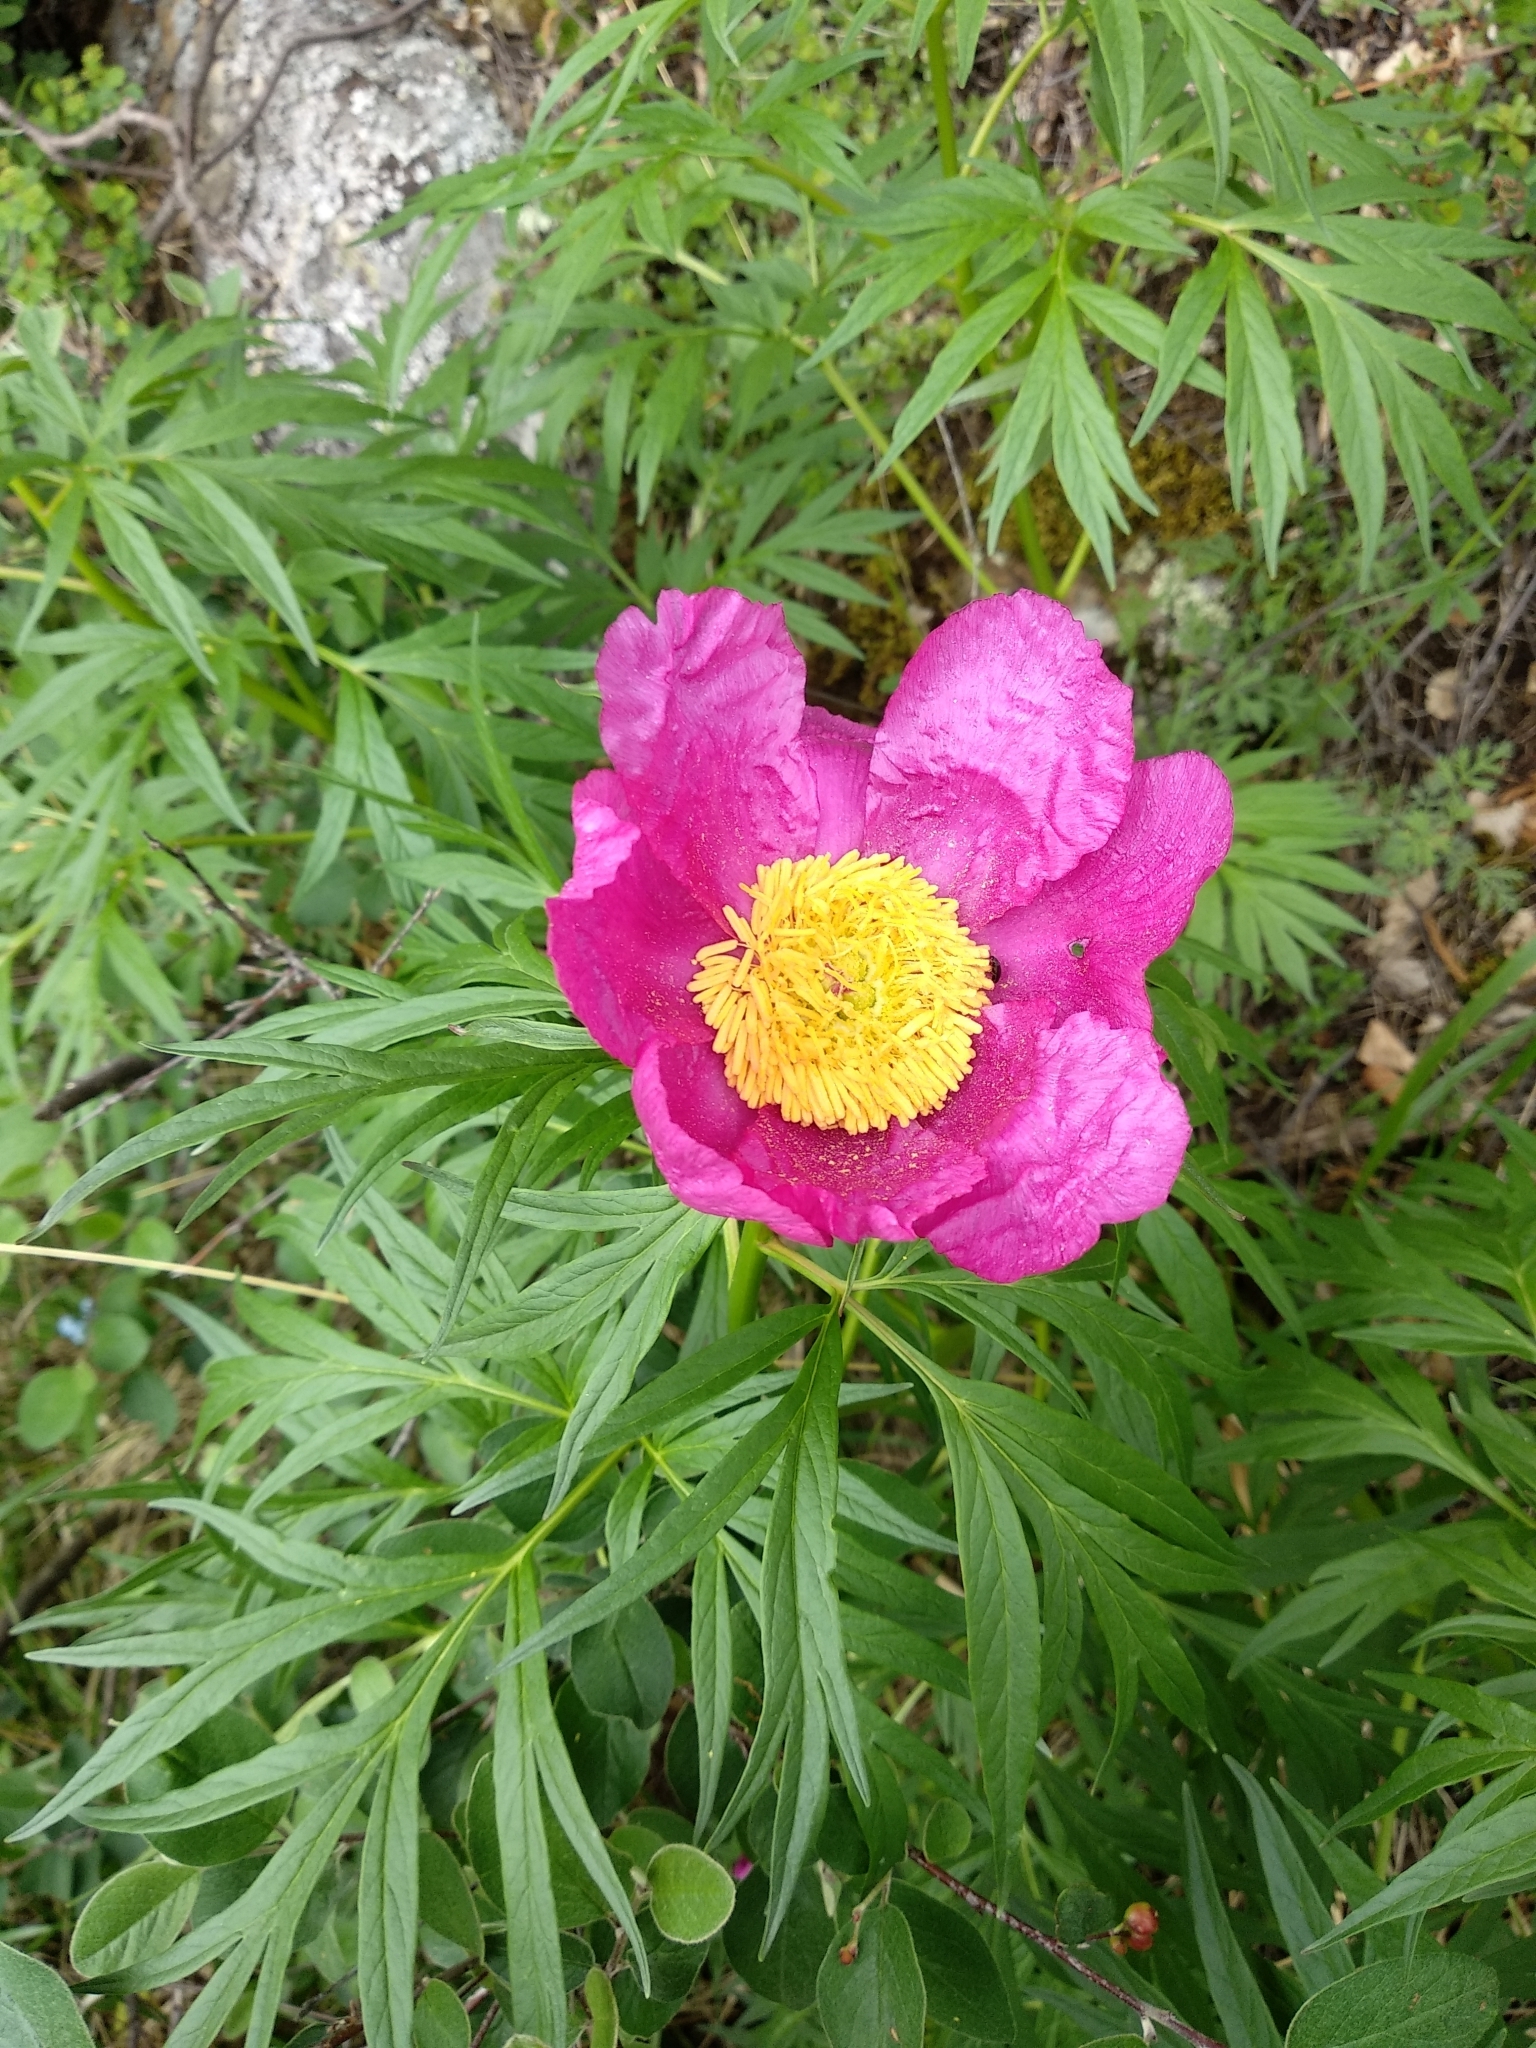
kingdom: Plantae
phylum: Tracheophyta
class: Magnoliopsida
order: Saxifragales
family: Paeoniaceae
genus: Paeonia
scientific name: Paeonia anomala
